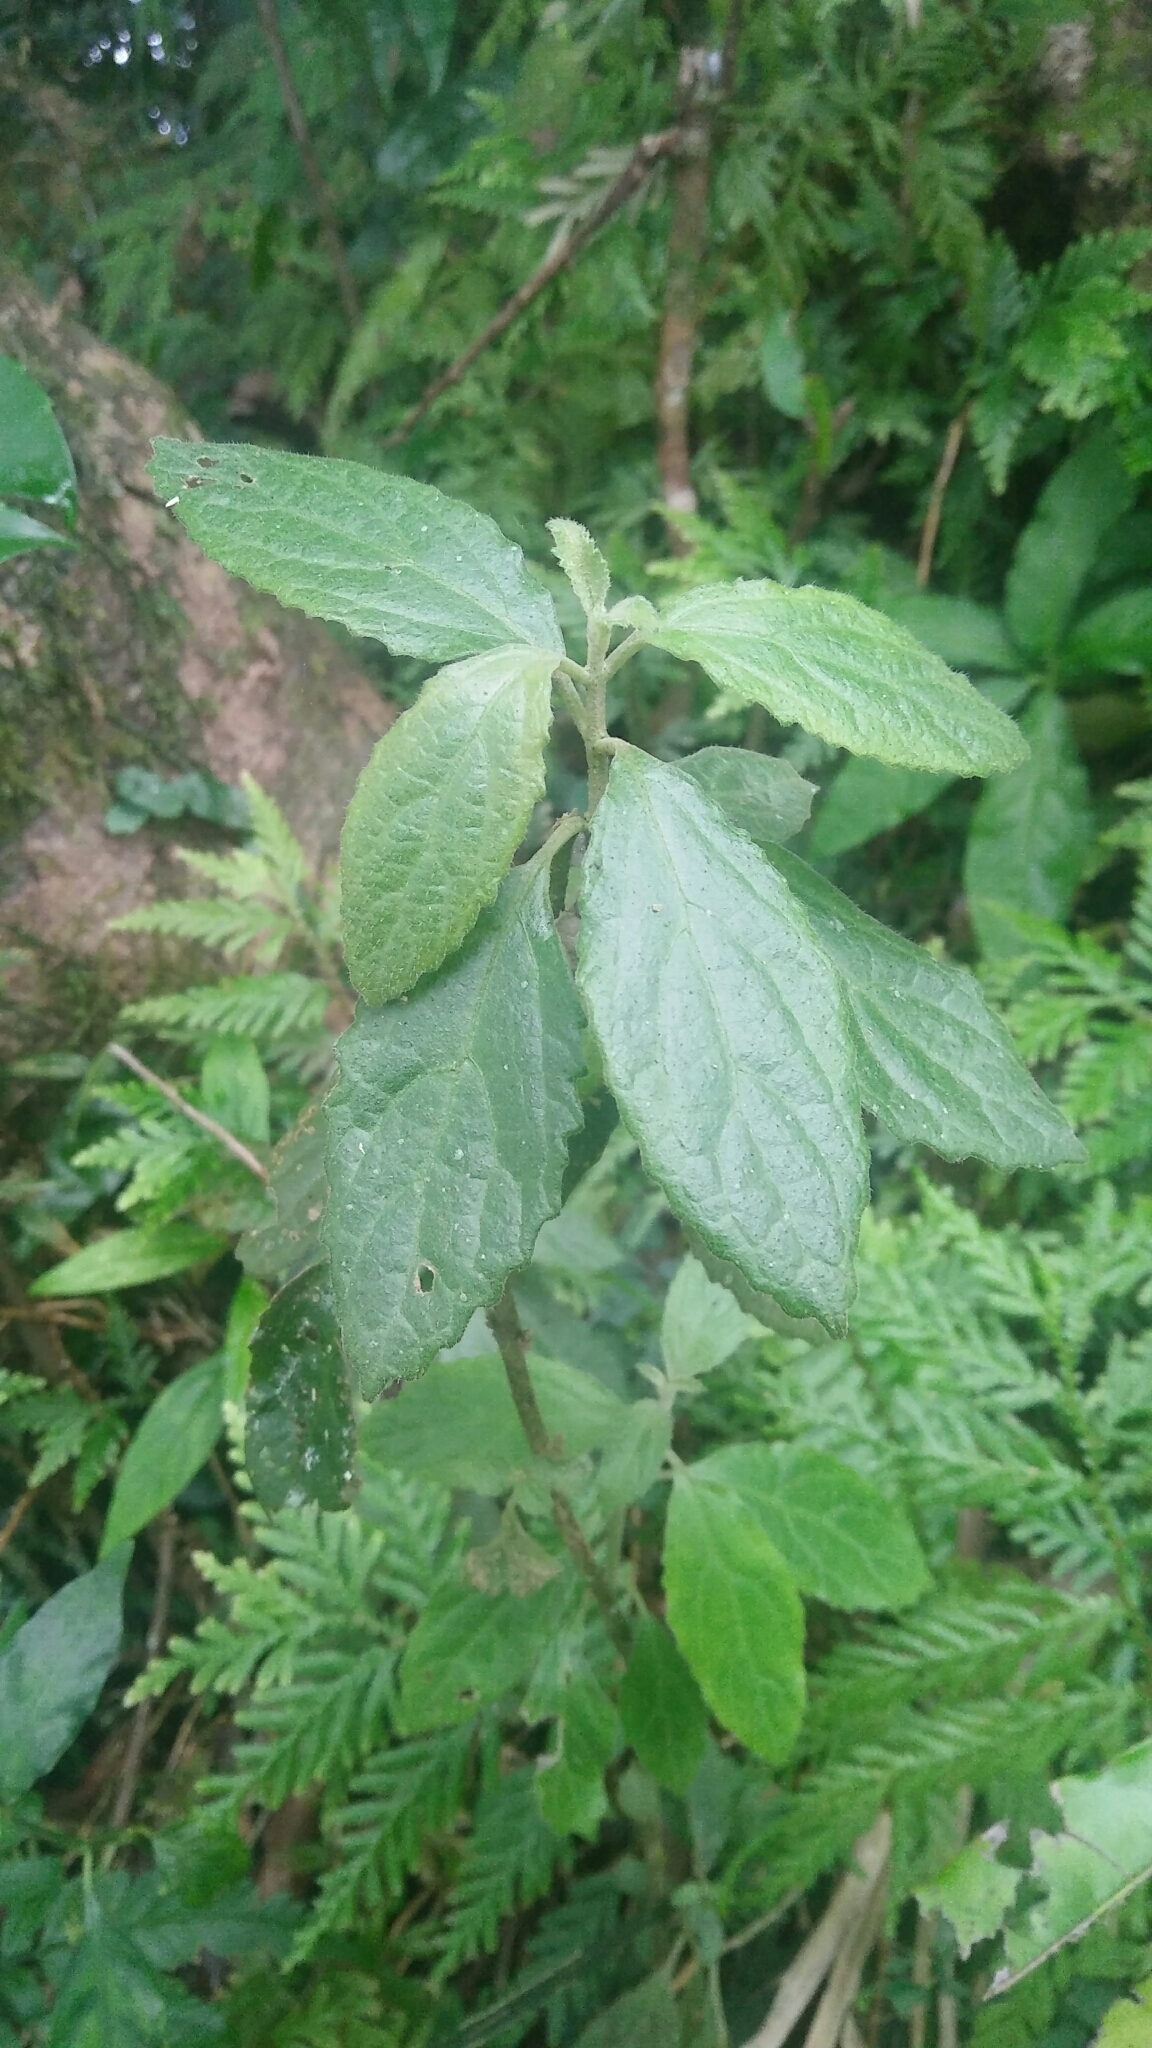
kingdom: Plantae
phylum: Tracheophyta
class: Magnoliopsida
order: Lamiales
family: Lamiaceae
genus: Gomphostemma
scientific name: Gomphostemma chinense
